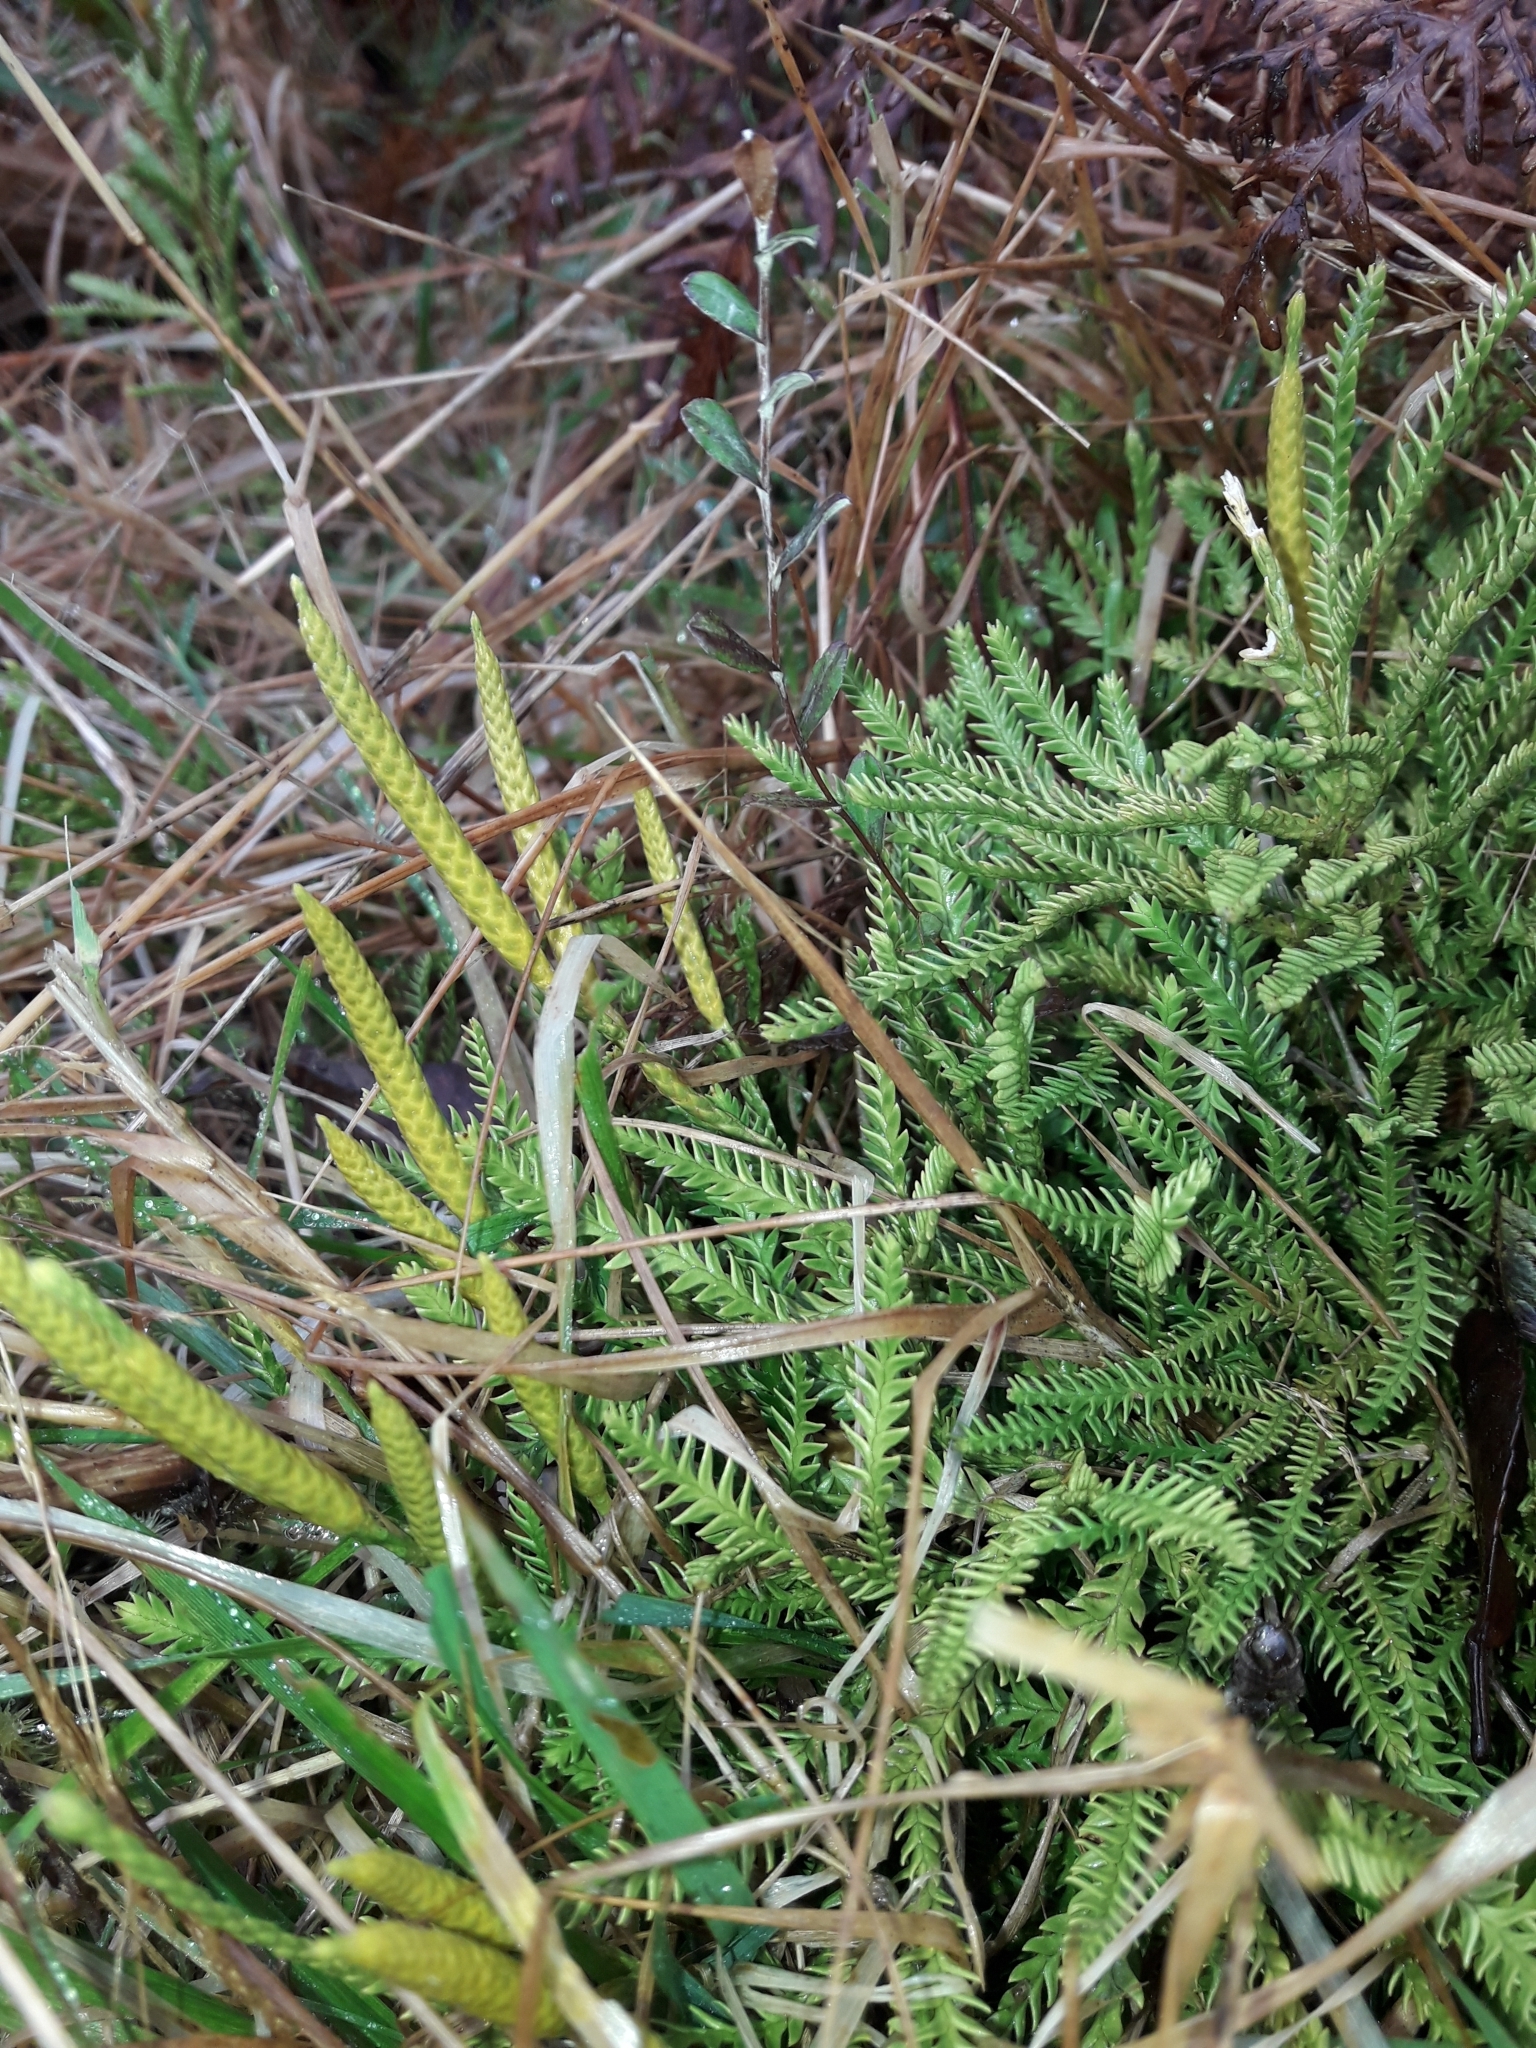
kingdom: Plantae
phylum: Tracheophyta
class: Lycopodiopsida
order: Lycopodiales
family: Lycopodiaceae
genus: Diphasium
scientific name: Diphasium scariosum
